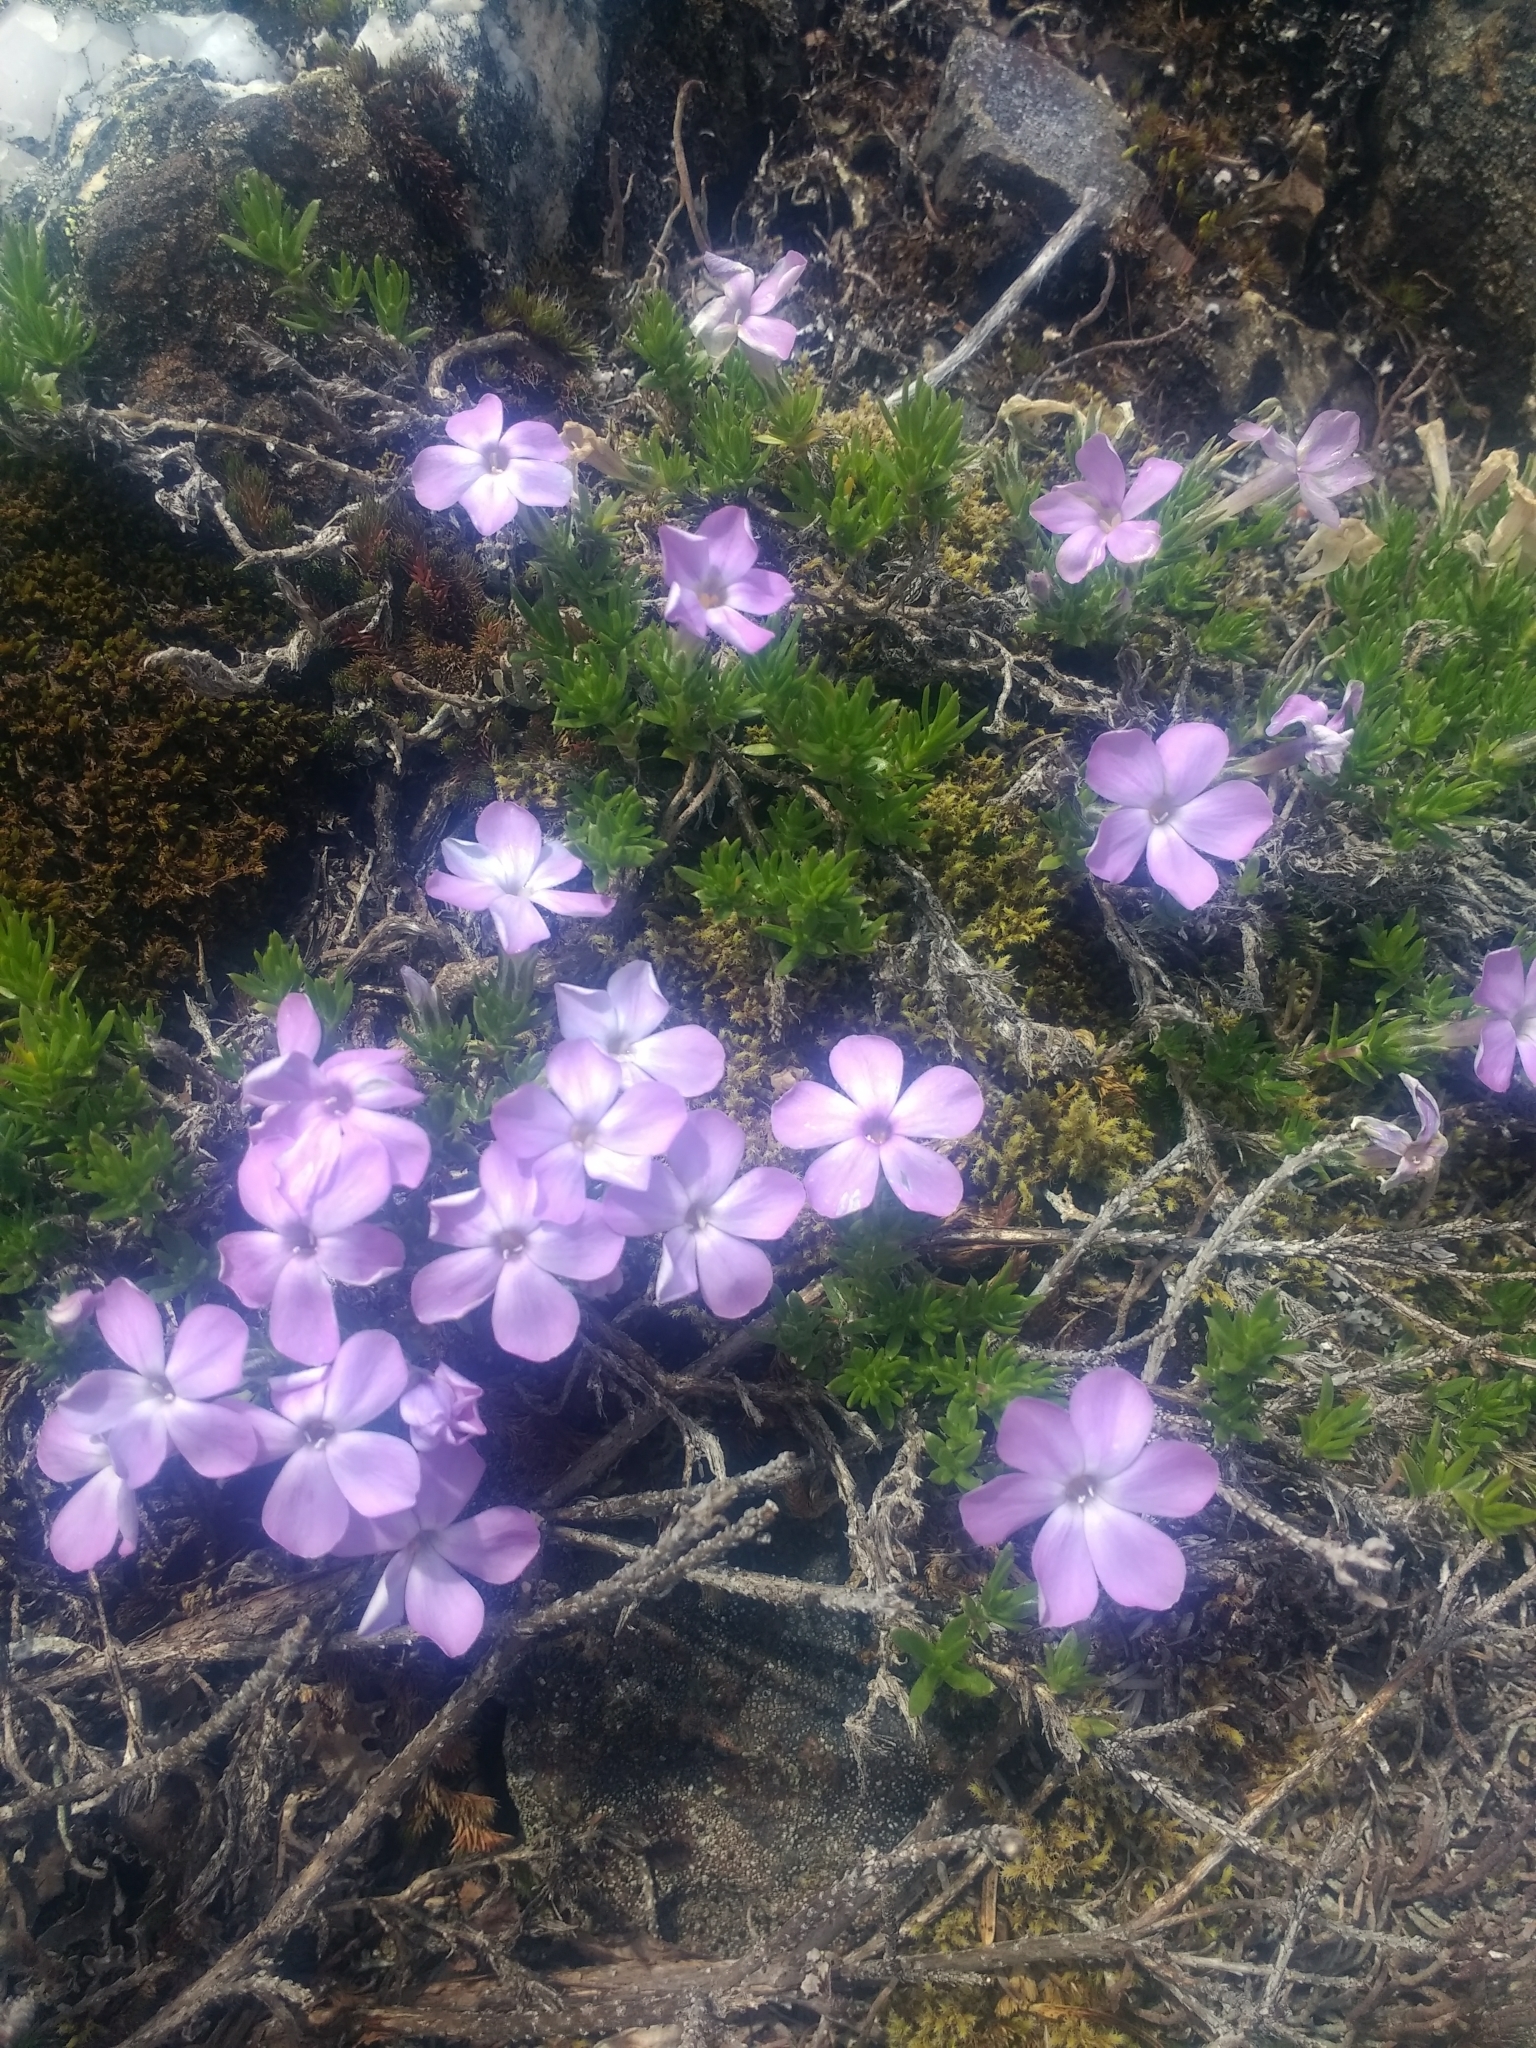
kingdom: Plantae
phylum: Tracheophyta
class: Magnoliopsida
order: Ericales
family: Polemoniaceae
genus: Phlox
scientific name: Phlox diffusa
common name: Mat phlox
